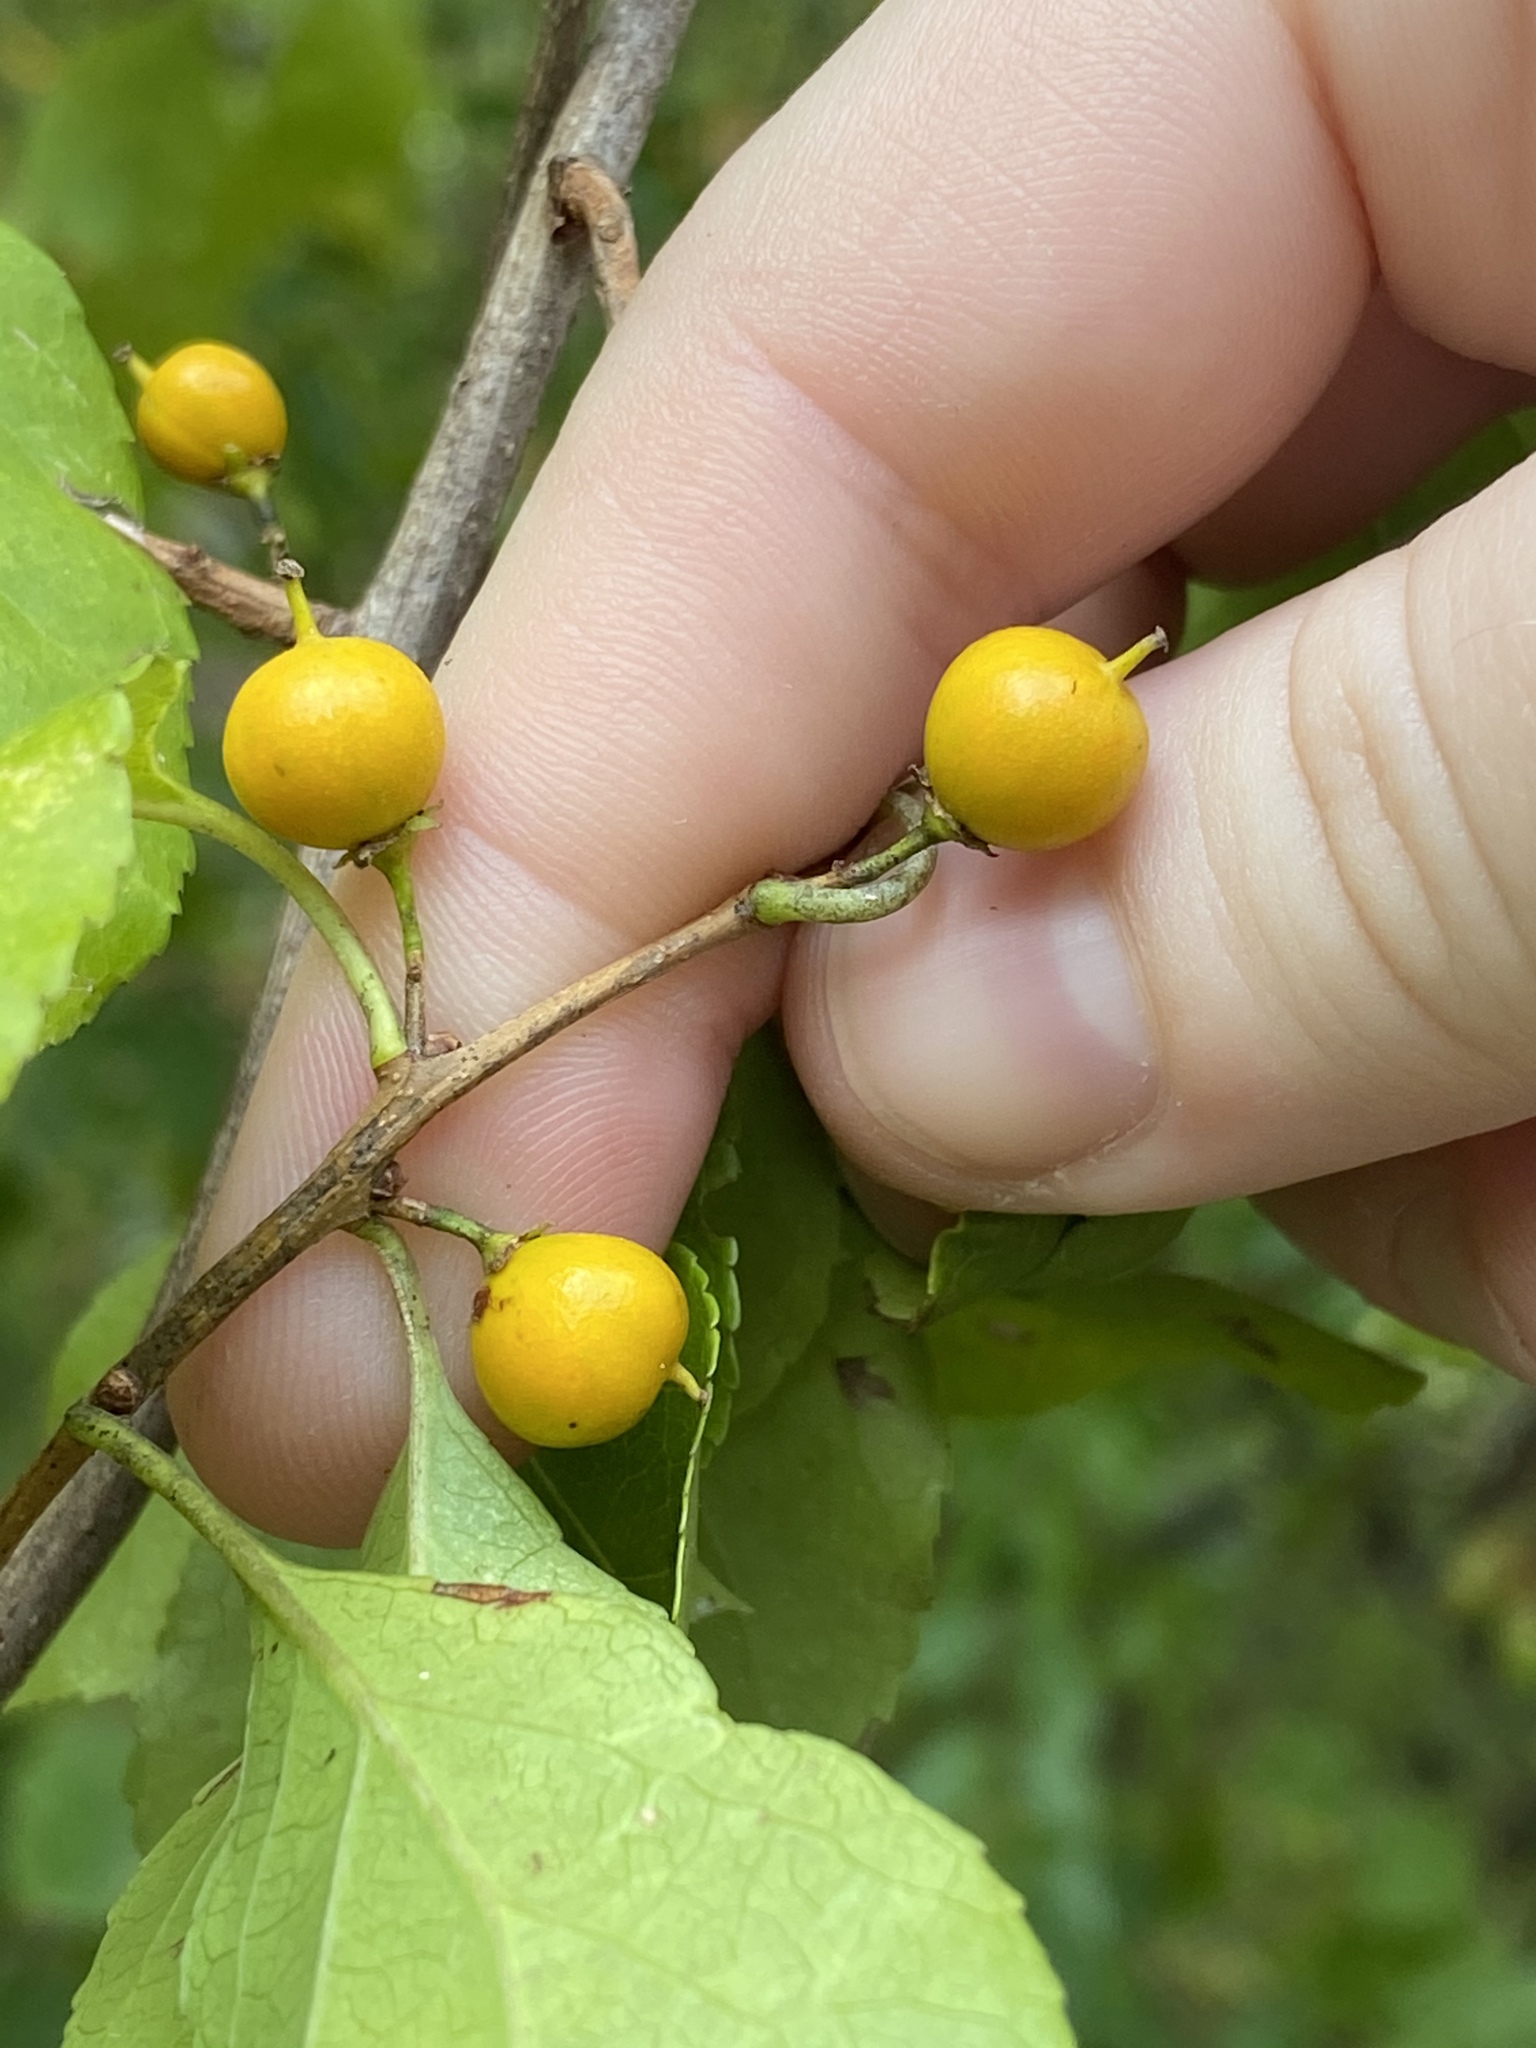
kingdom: Plantae
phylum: Tracheophyta
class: Magnoliopsida
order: Celastrales
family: Celastraceae
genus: Celastrus
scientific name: Celastrus orbiculatus
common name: Oriental bittersweet
